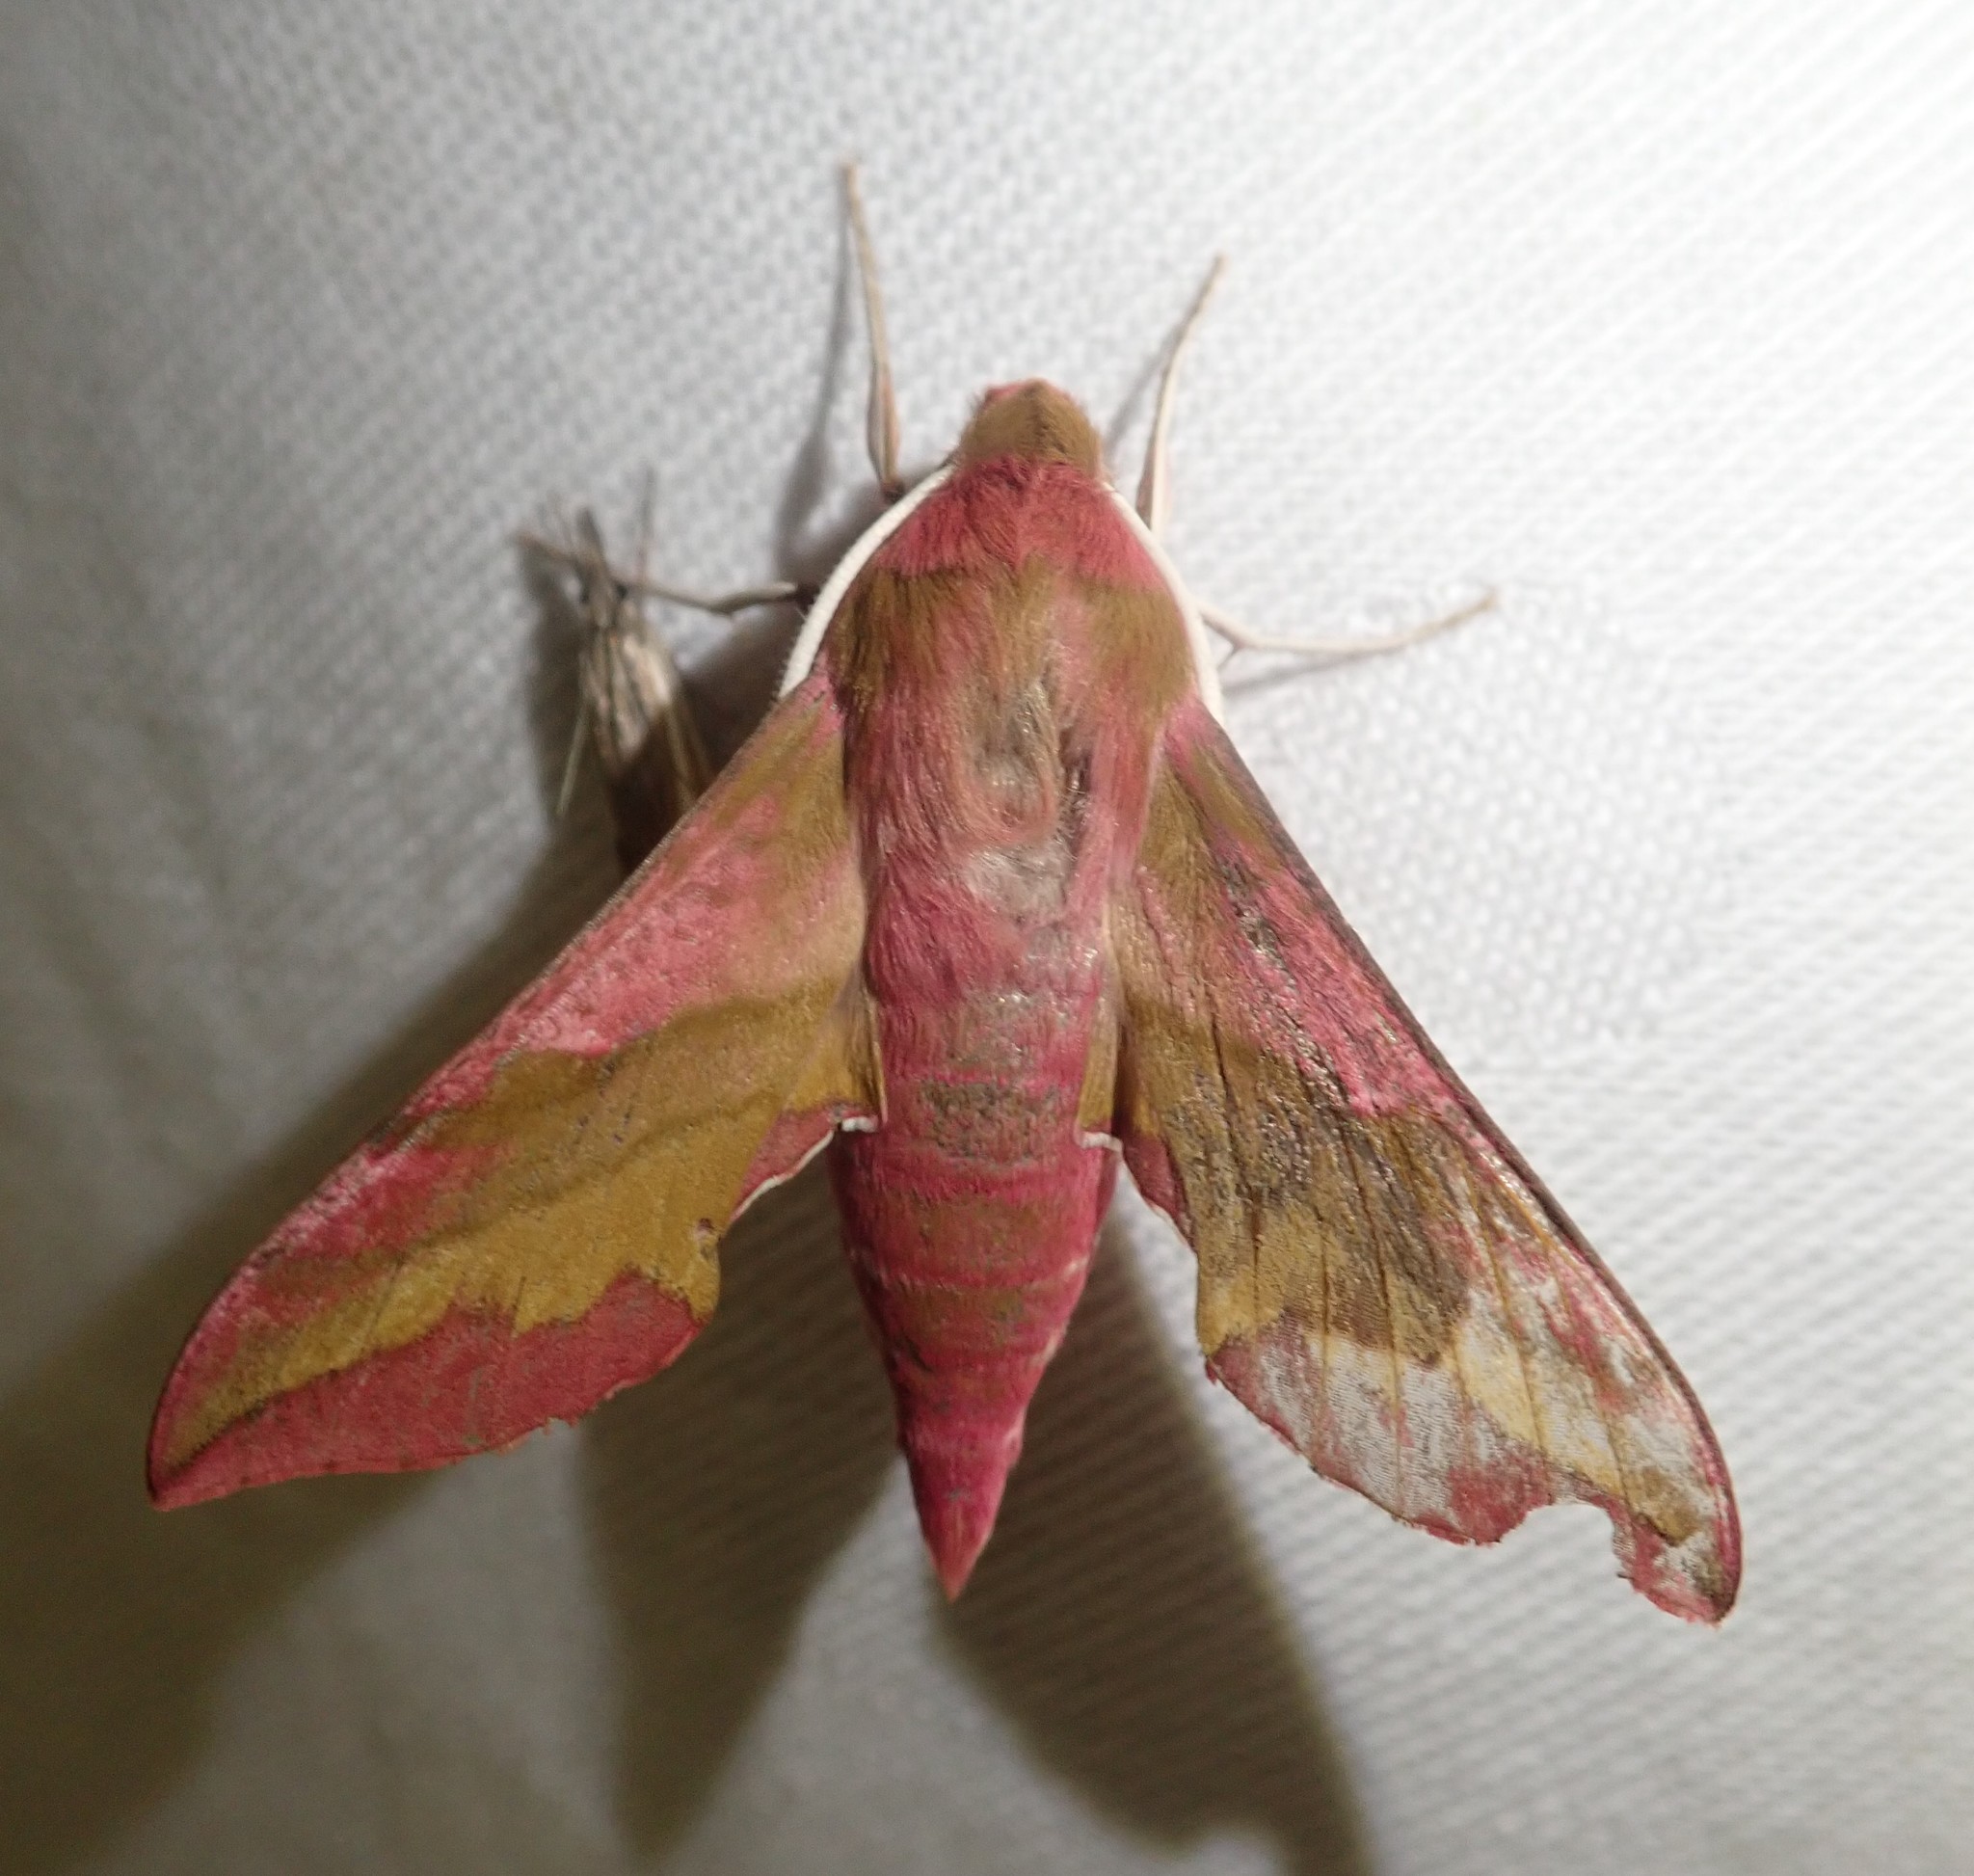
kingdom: Animalia
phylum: Arthropoda
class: Insecta
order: Lepidoptera
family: Sphingidae
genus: Deilephila
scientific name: Deilephila porcellus
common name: Small elephant hawk-moth
